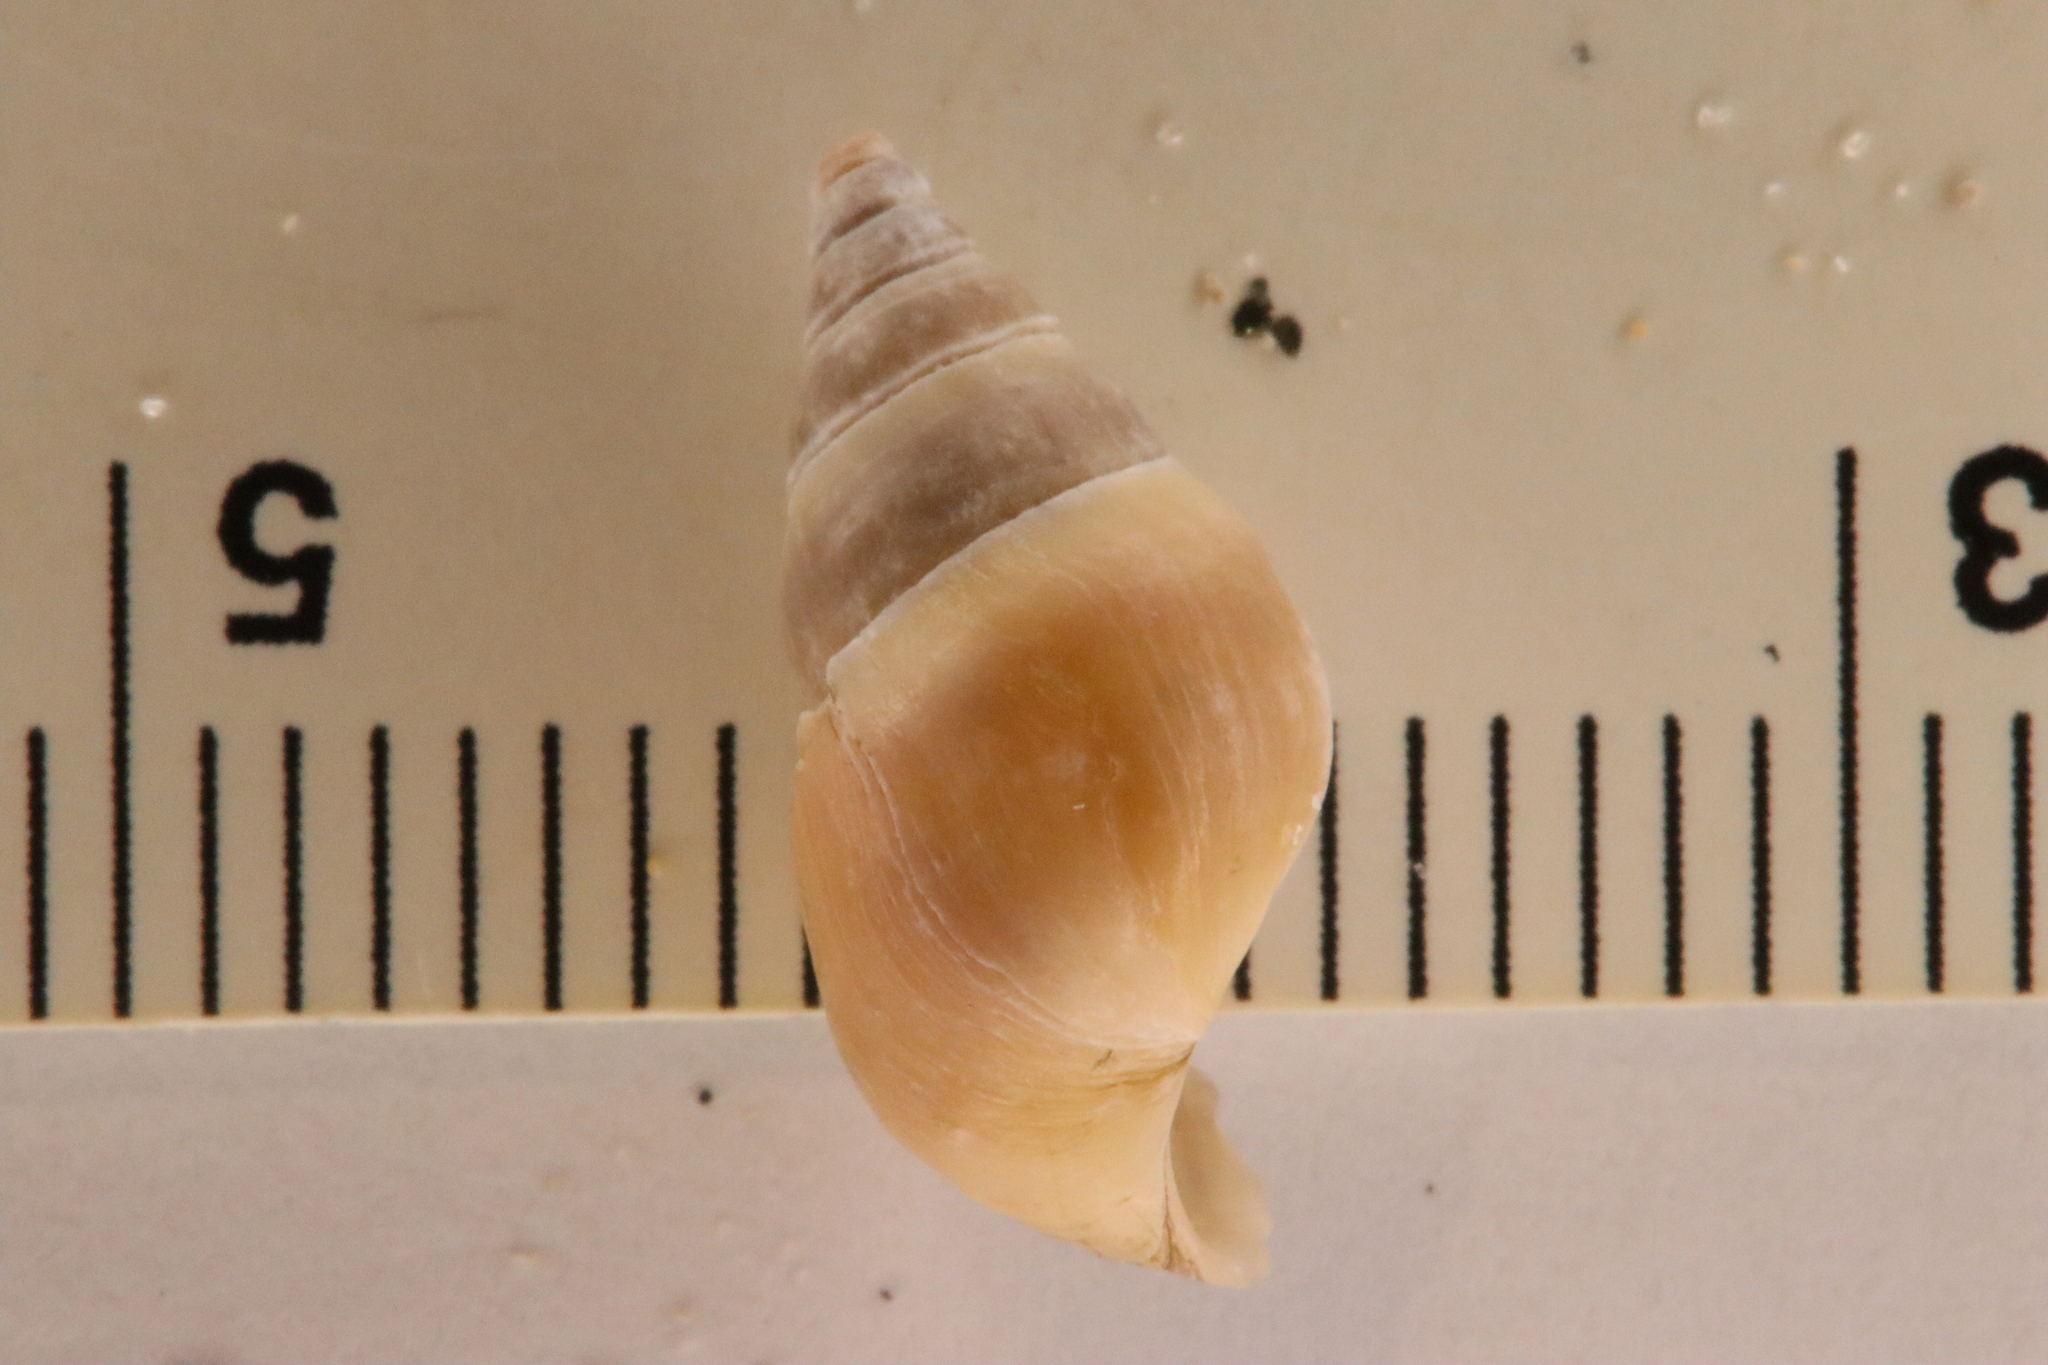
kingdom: Animalia
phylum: Mollusca
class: Gastropoda
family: Pleuroceridae
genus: Elimia
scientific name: Elimia livescens
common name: Liver elimia
